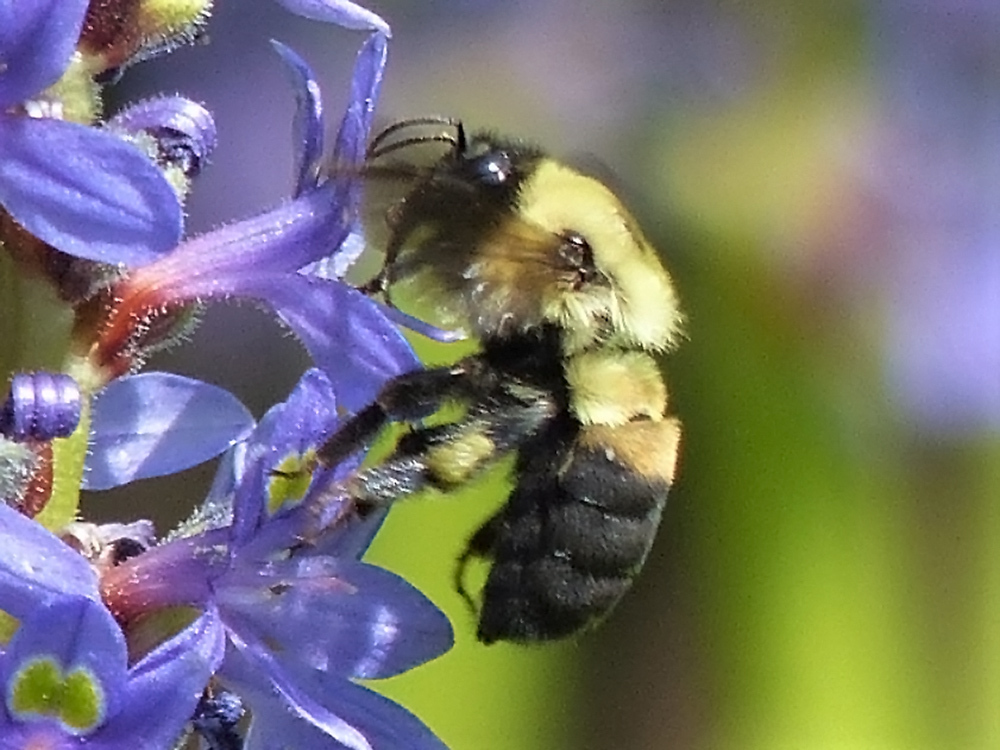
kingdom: Animalia
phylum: Arthropoda
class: Insecta
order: Hymenoptera
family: Apidae
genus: Bombus
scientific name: Bombus griseocollis
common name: Brown-belted bumble bee
